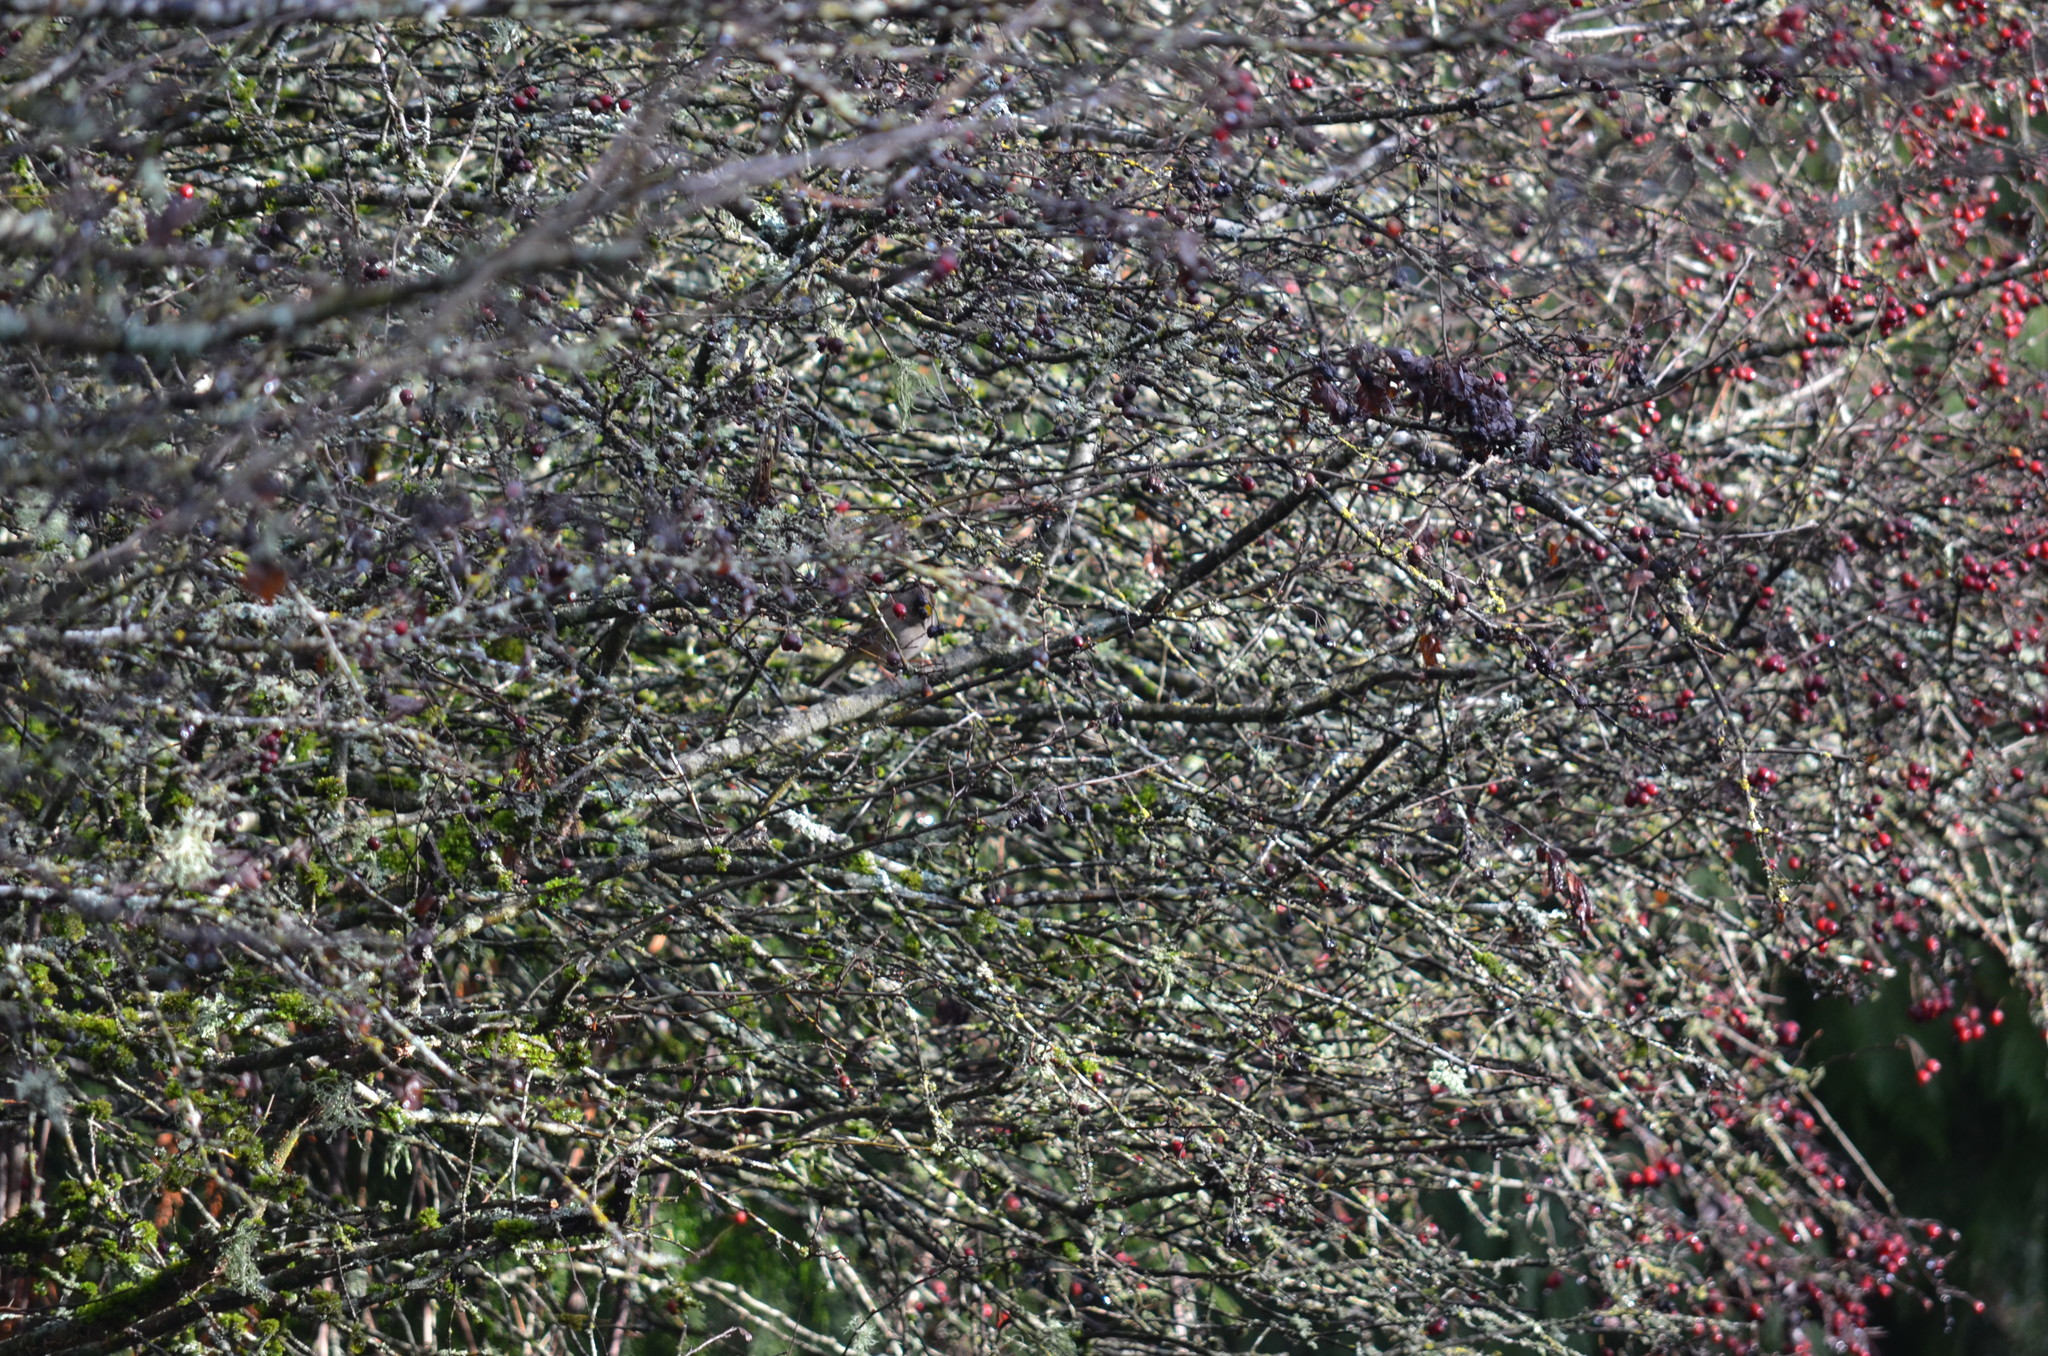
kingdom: Animalia
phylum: Chordata
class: Aves
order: Passeriformes
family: Passerellidae
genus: Zonotrichia
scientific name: Zonotrichia atricapilla
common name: Golden-crowned sparrow
